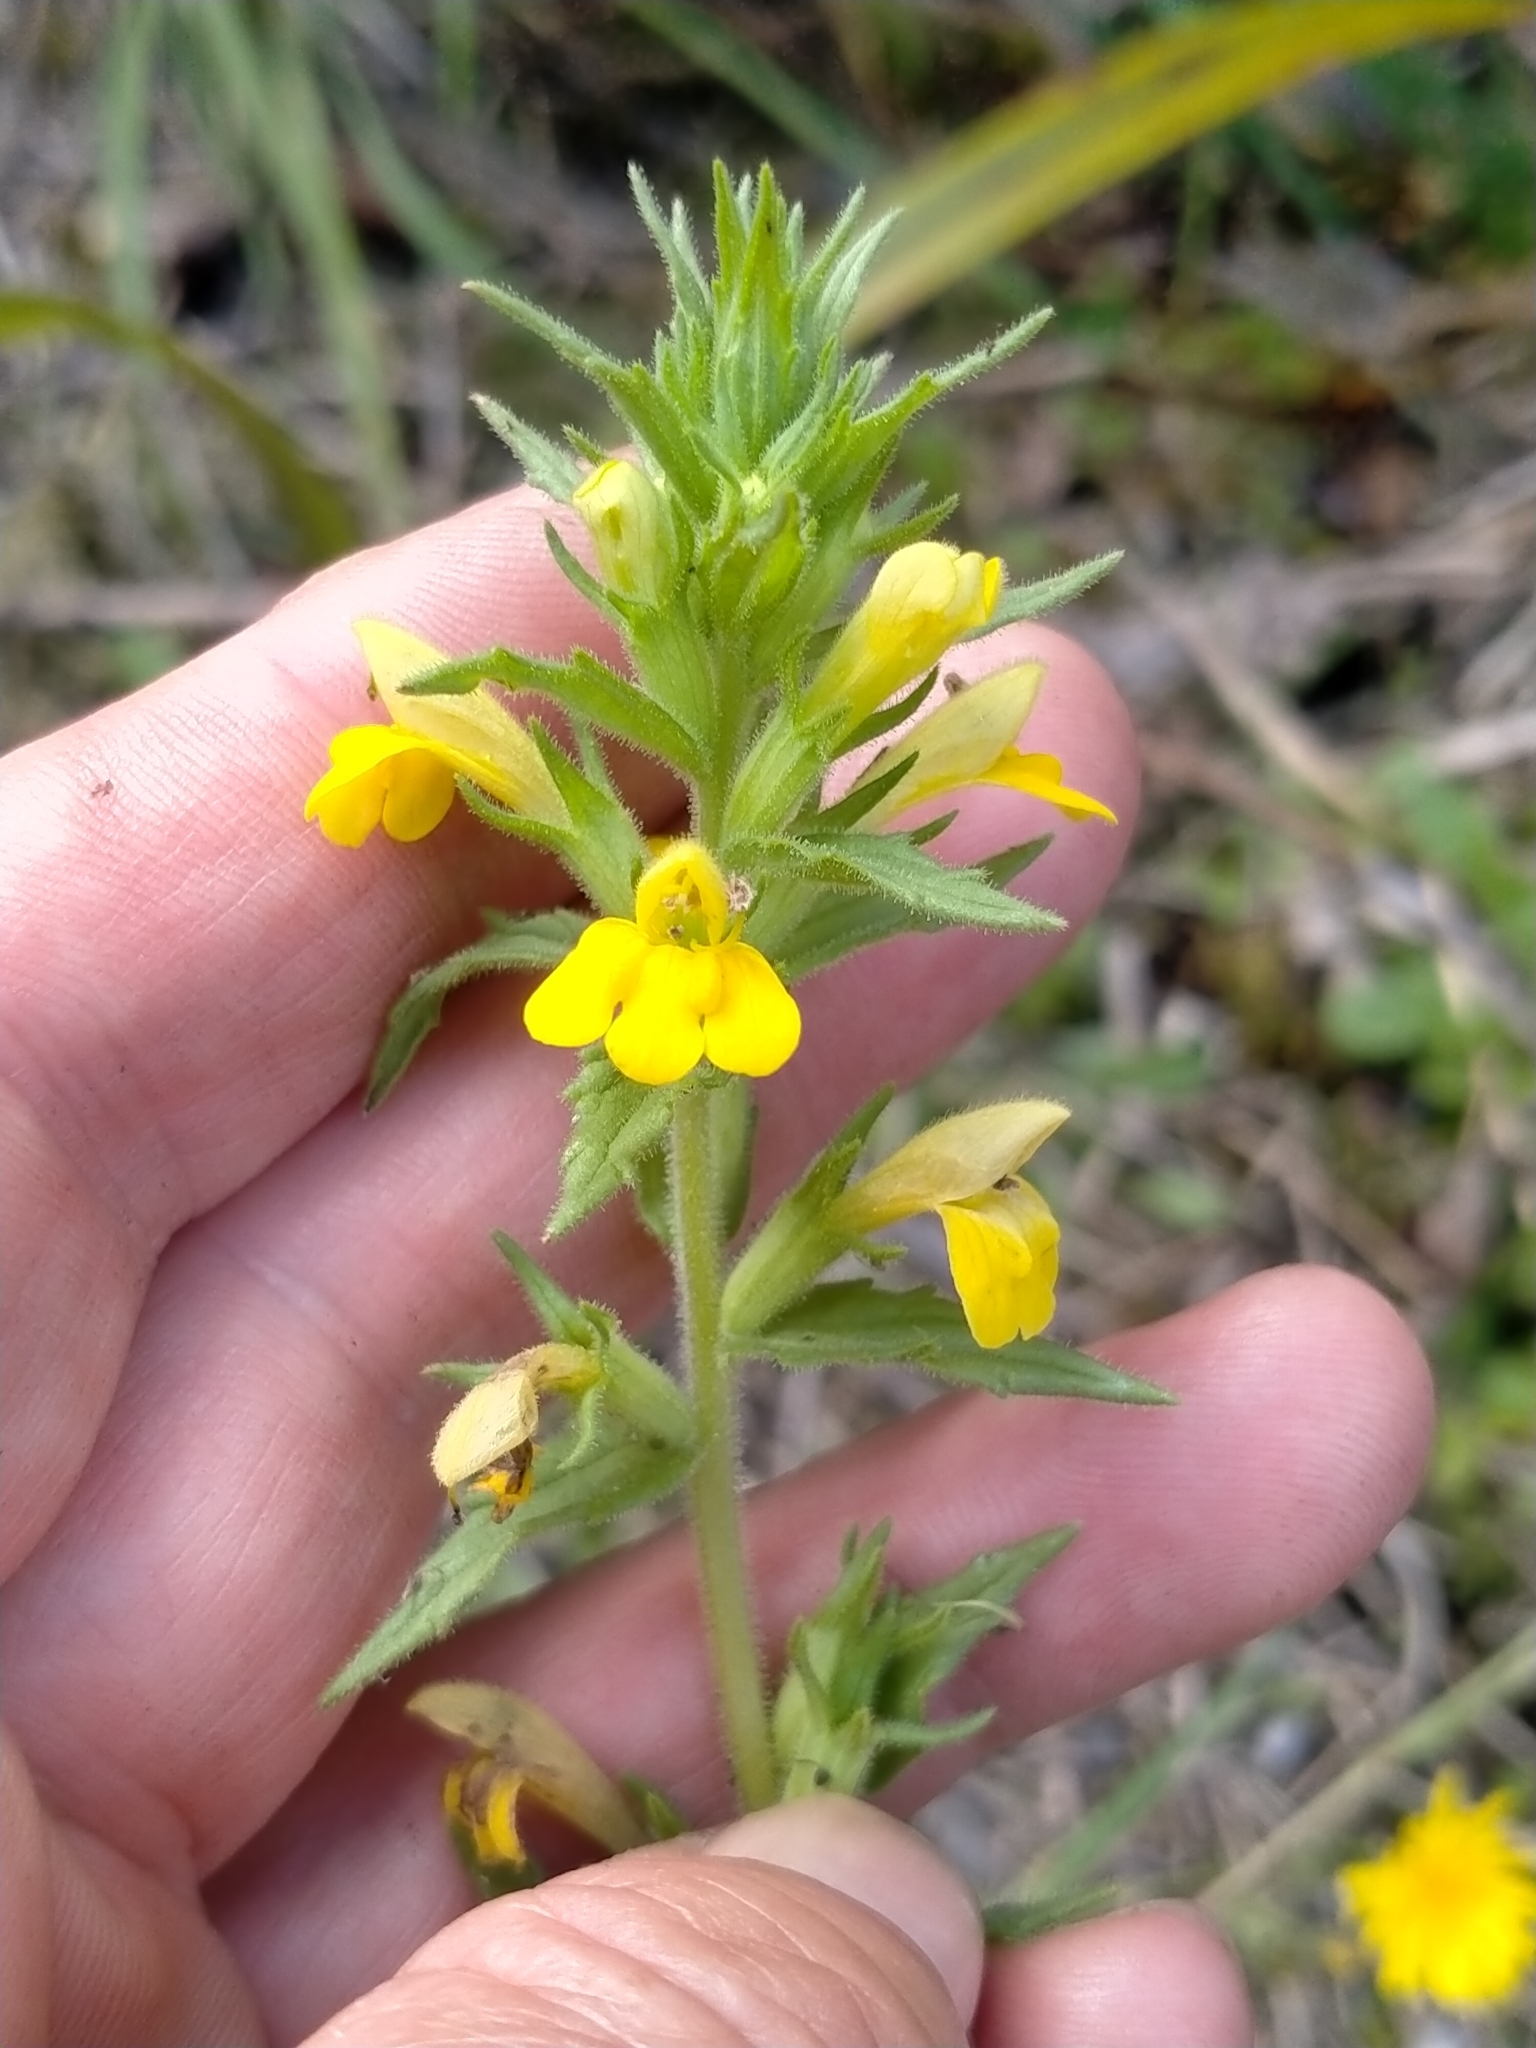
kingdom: Plantae
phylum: Tracheophyta
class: Magnoliopsida
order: Lamiales
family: Orobanchaceae
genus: Bellardia
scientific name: Bellardia viscosa
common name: Sticky parentucellia
